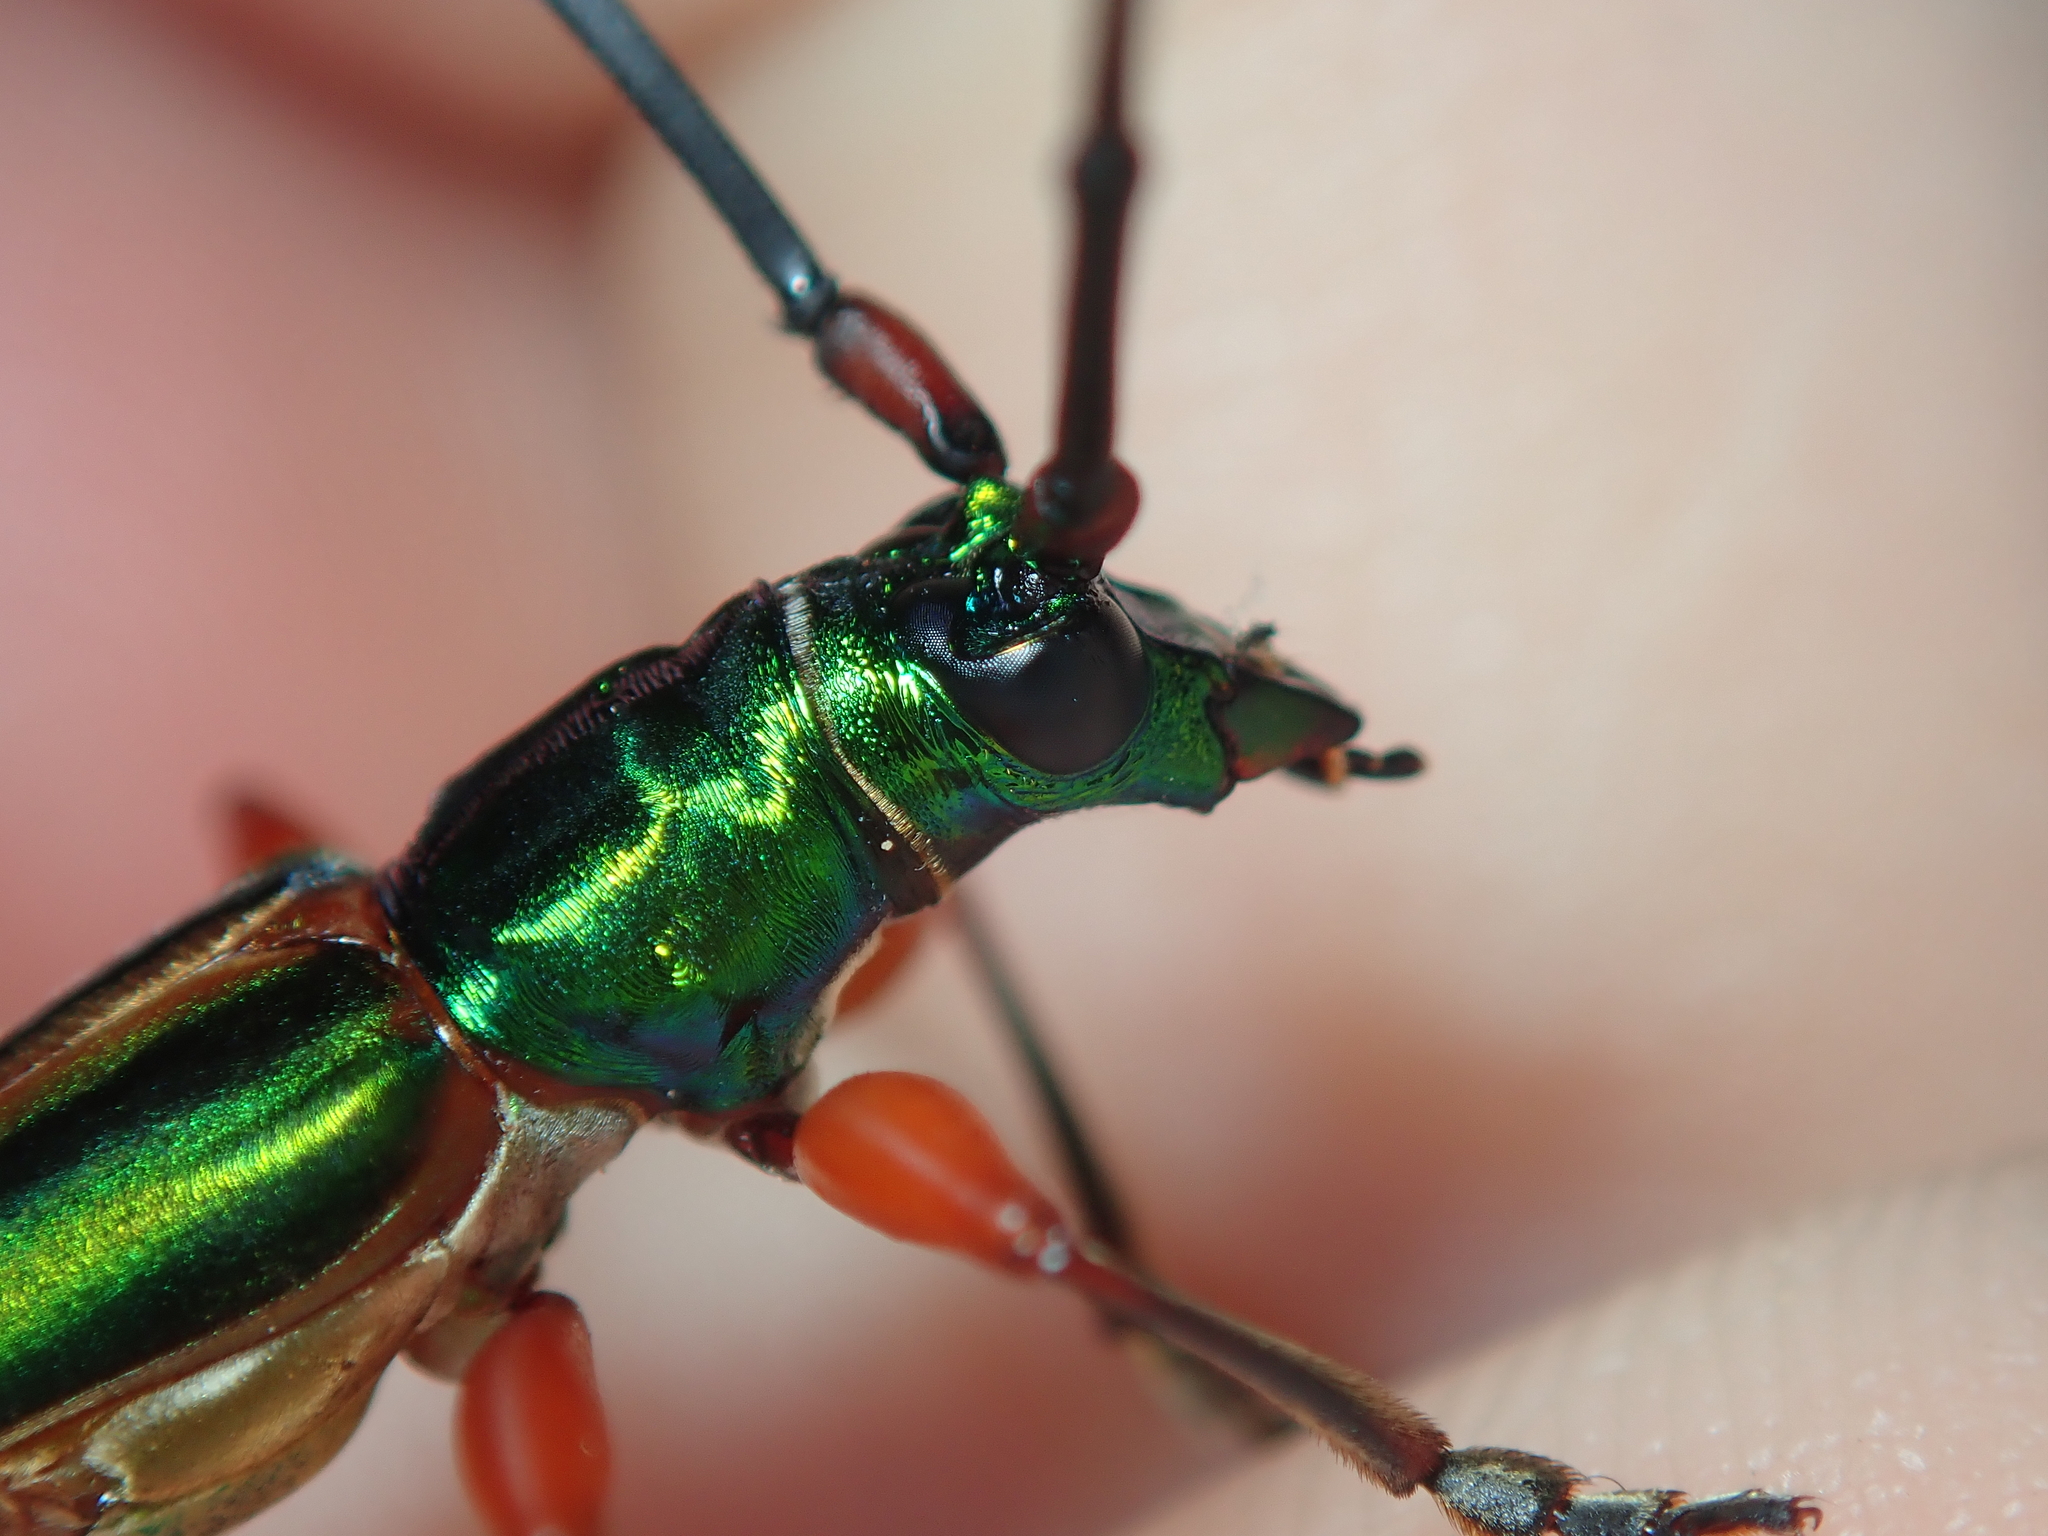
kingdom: Animalia
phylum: Arthropoda
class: Insecta
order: Coleoptera
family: Cerambycidae
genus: Mionochroma
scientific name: Mionochroma pseudovittatum
